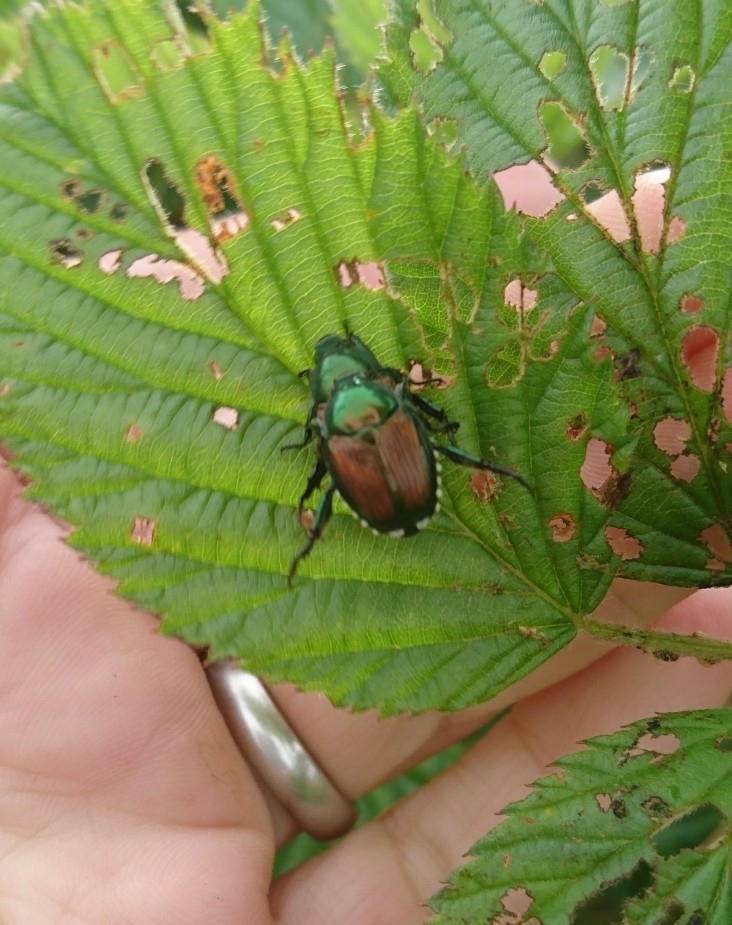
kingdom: Animalia
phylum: Arthropoda
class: Insecta
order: Coleoptera
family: Scarabaeidae
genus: Popillia
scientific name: Popillia japonica
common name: Japanese beetle
